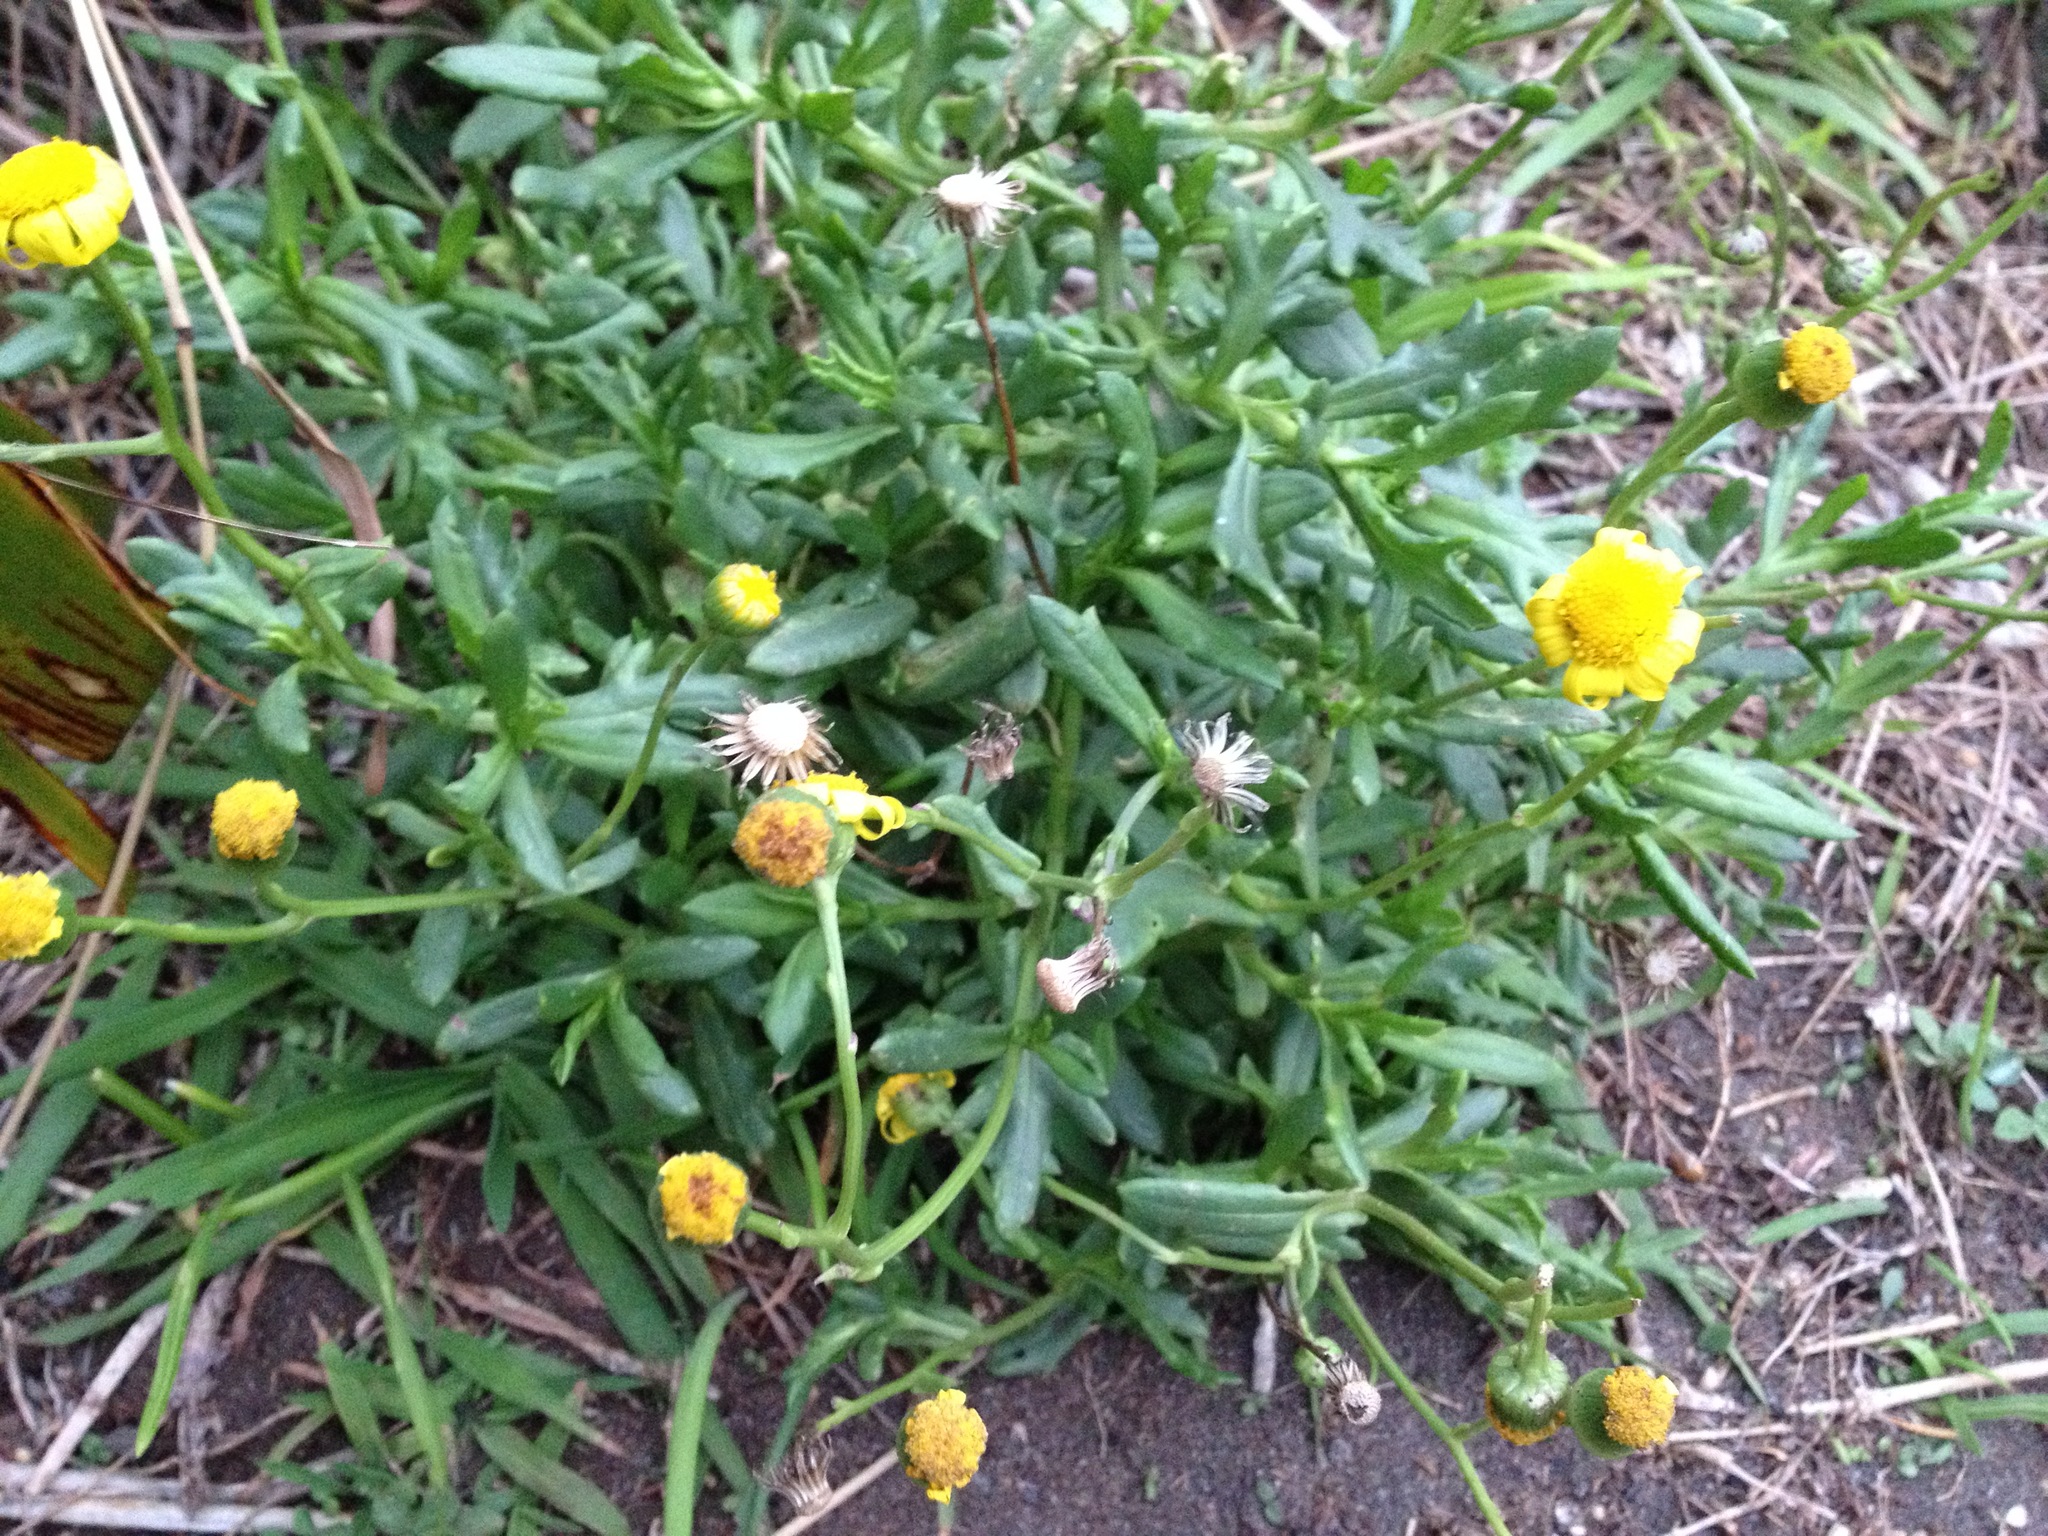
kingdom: Plantae
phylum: Tracheophyta
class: Magnoliopsida
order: Asterales
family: Asteraceae
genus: Senecio
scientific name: Senecio lautus
